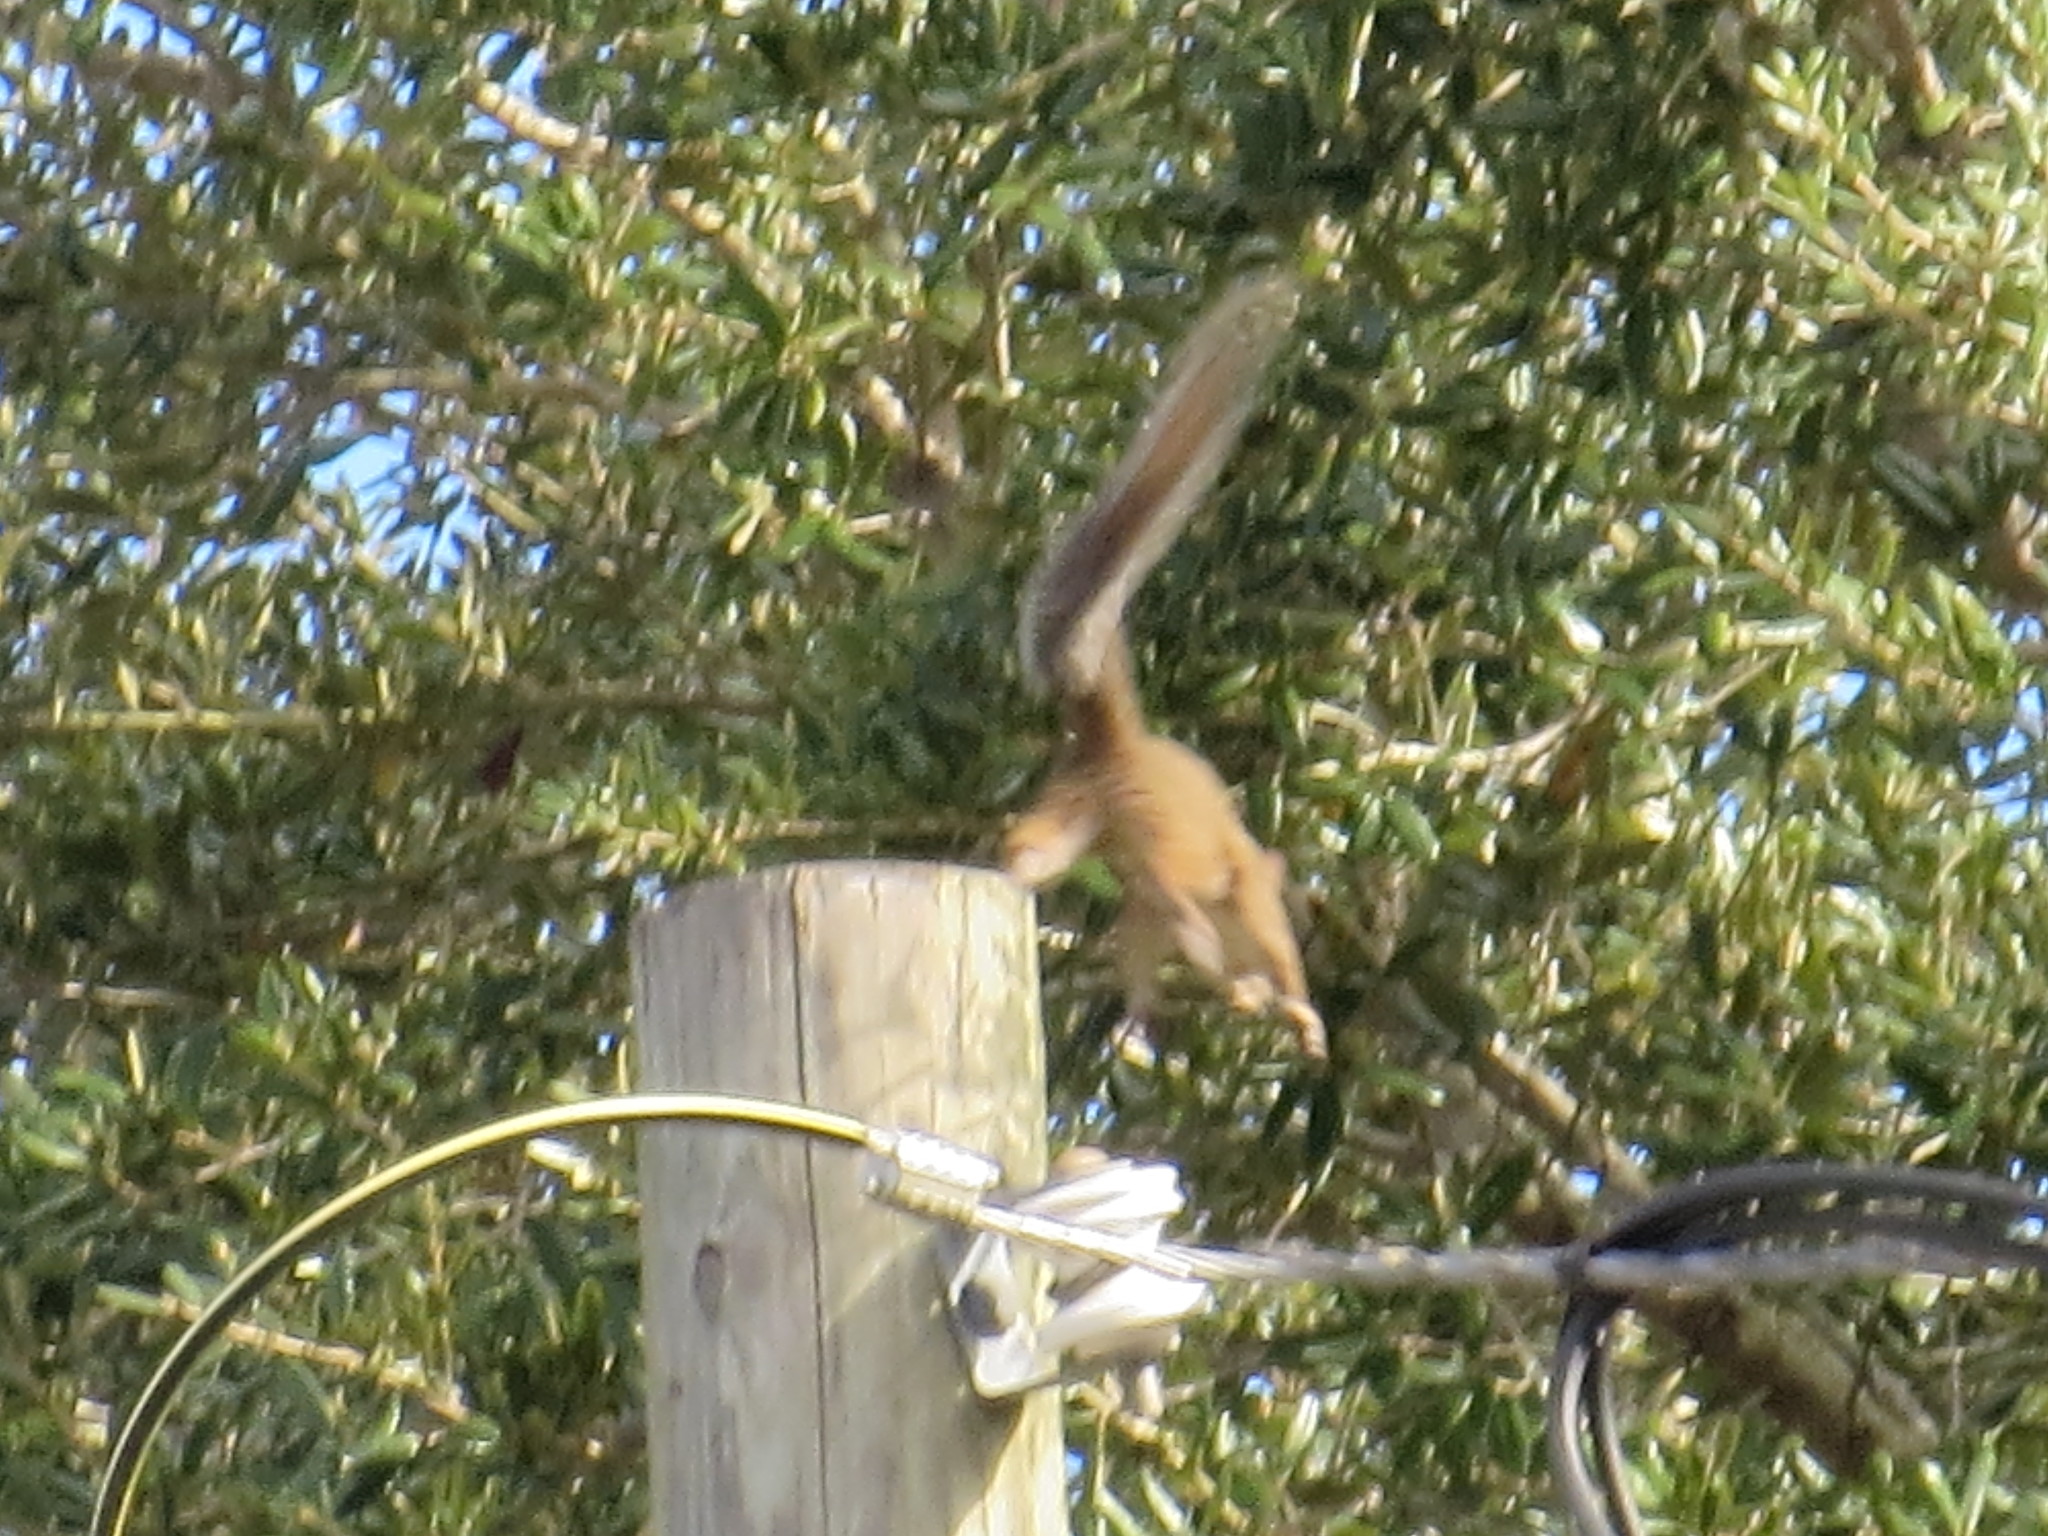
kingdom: Animalia
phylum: Chordata
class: Mammalia
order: Rodentia
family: Sciuridae
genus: Sciurus
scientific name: Sciurus carolinensis
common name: Eastern gray squirrel
